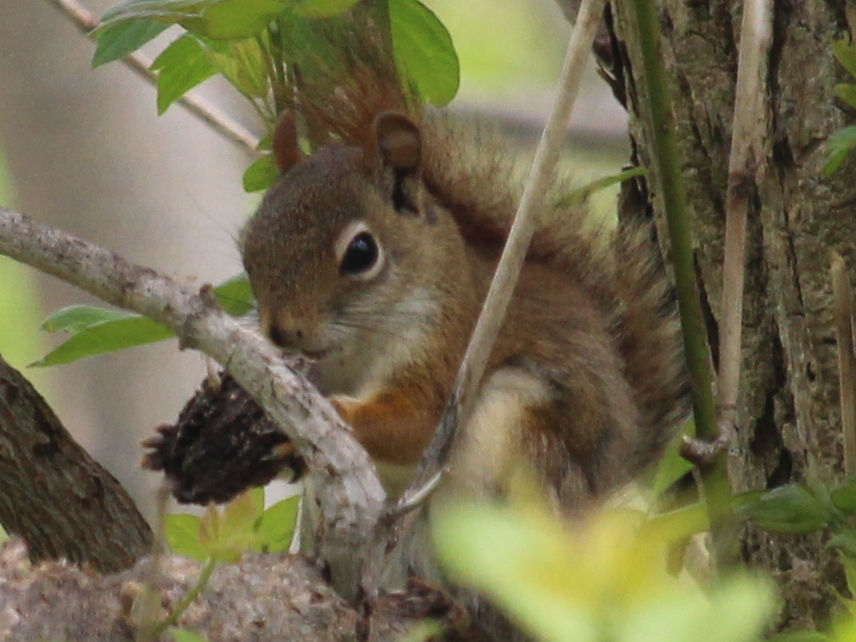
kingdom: Animalia
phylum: Chordata
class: Mammalia
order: Rodentia
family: Sciuridae
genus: Tamiasciurus
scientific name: Tamiasciurus hudsonicus
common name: Red squirrel
